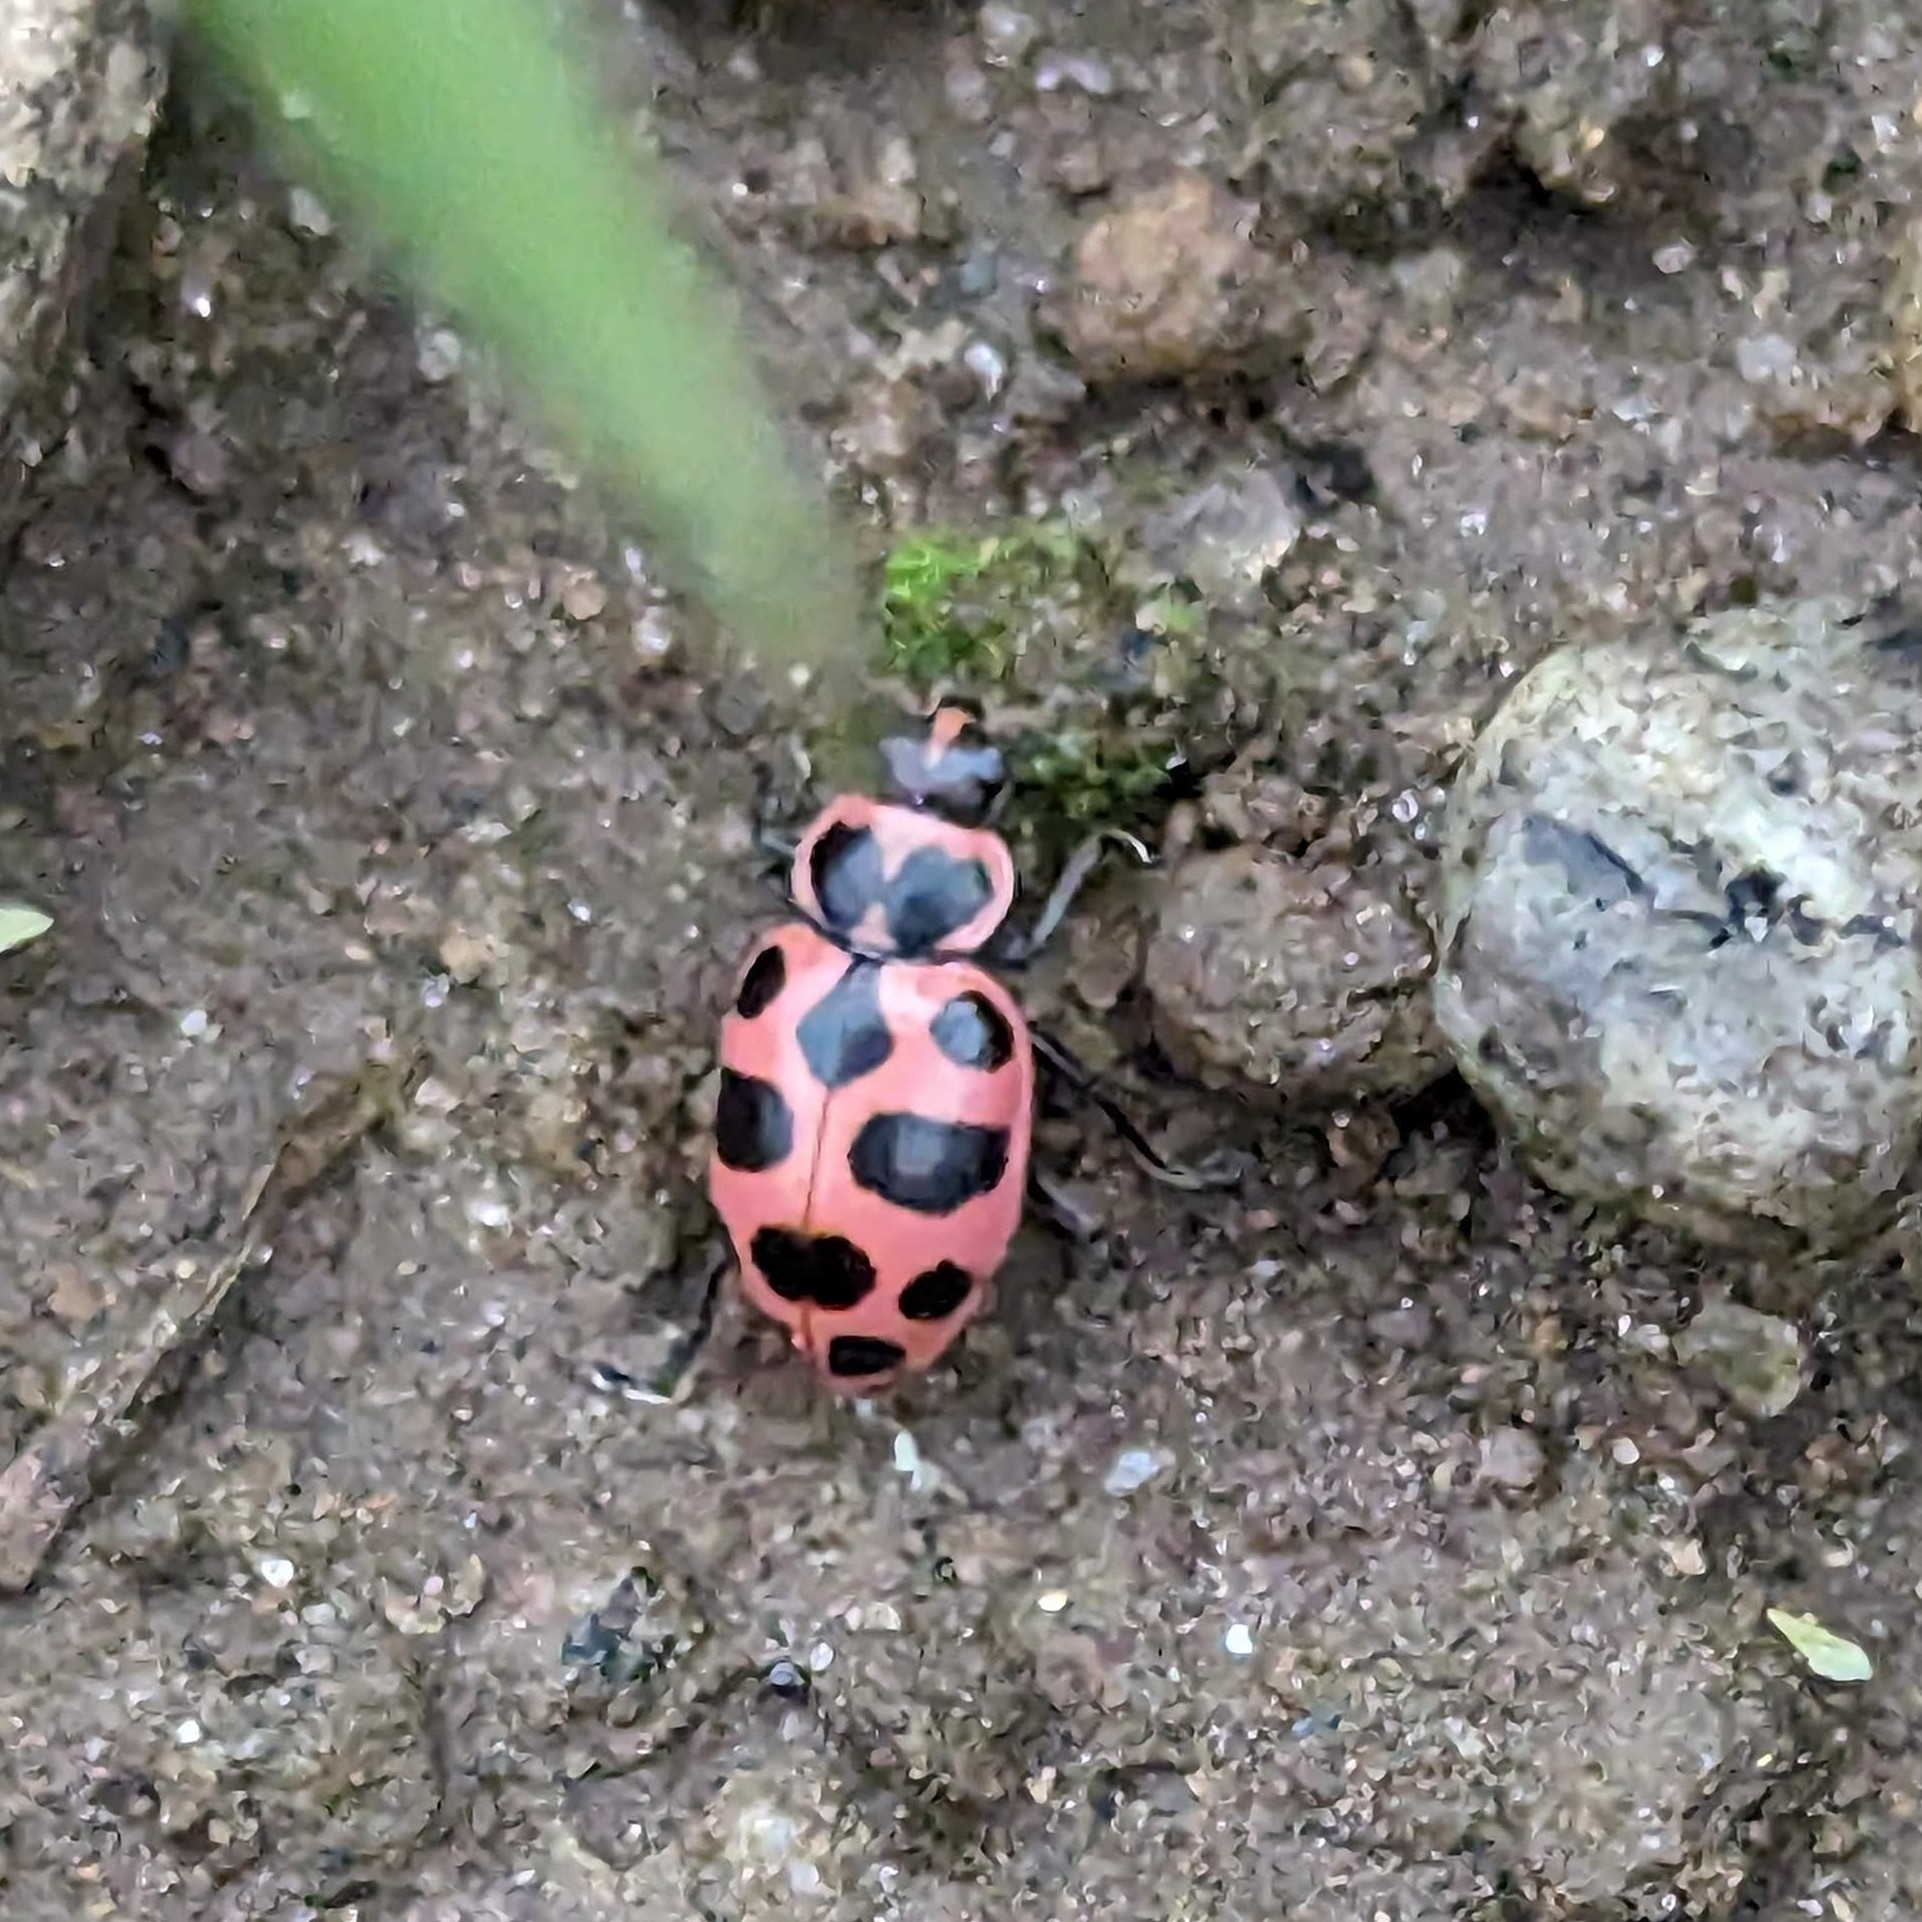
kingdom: Animalia
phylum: Arthropoda
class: Insecta
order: Coleoptera
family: Coccinellidae
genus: Coleomegilla
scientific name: Coleomegilla maculata
